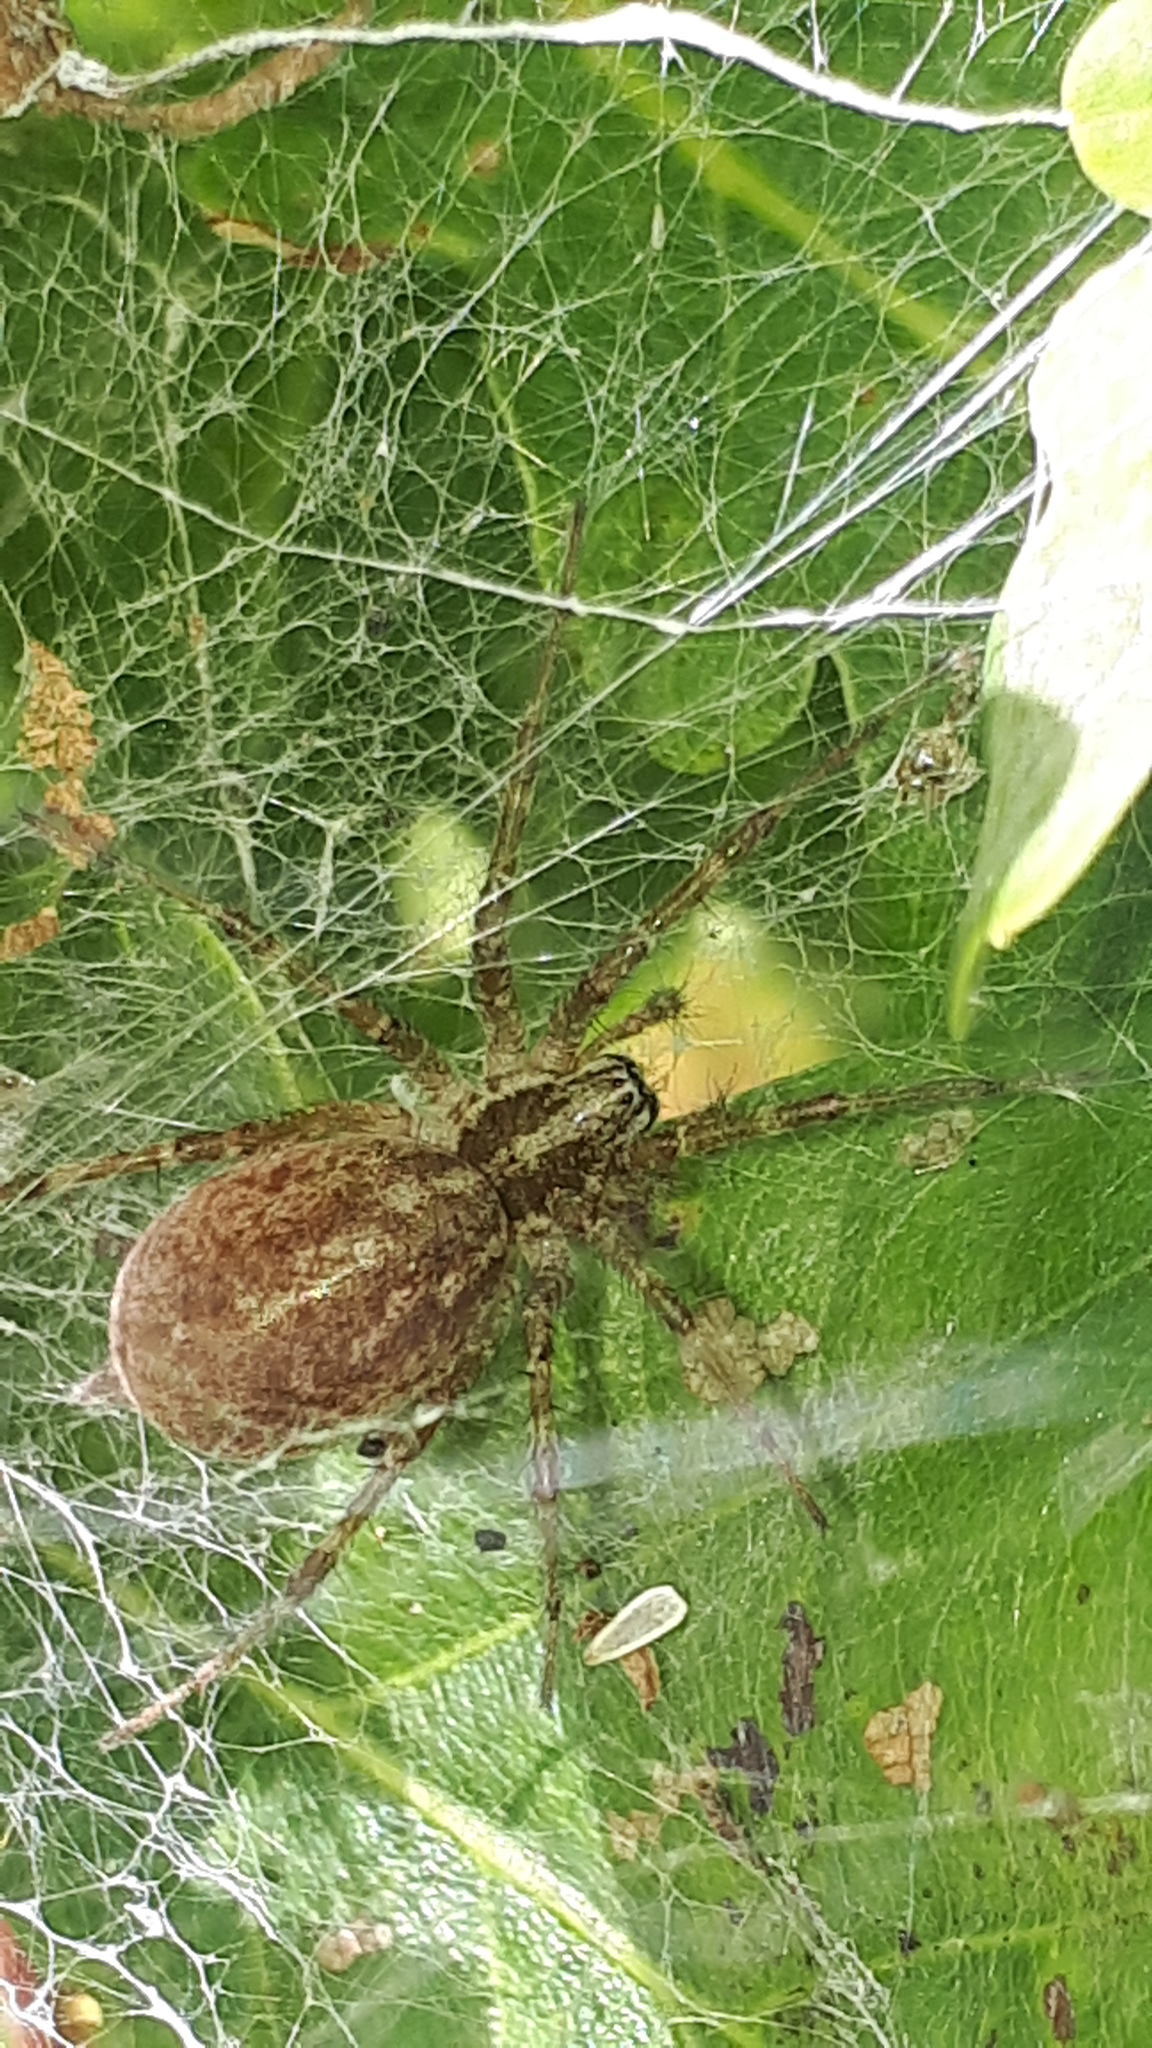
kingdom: Animalia
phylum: Arthropoda
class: Arachnida
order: Araneae
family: Agelenidae
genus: Allagelena
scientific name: Allagelena gracilens
